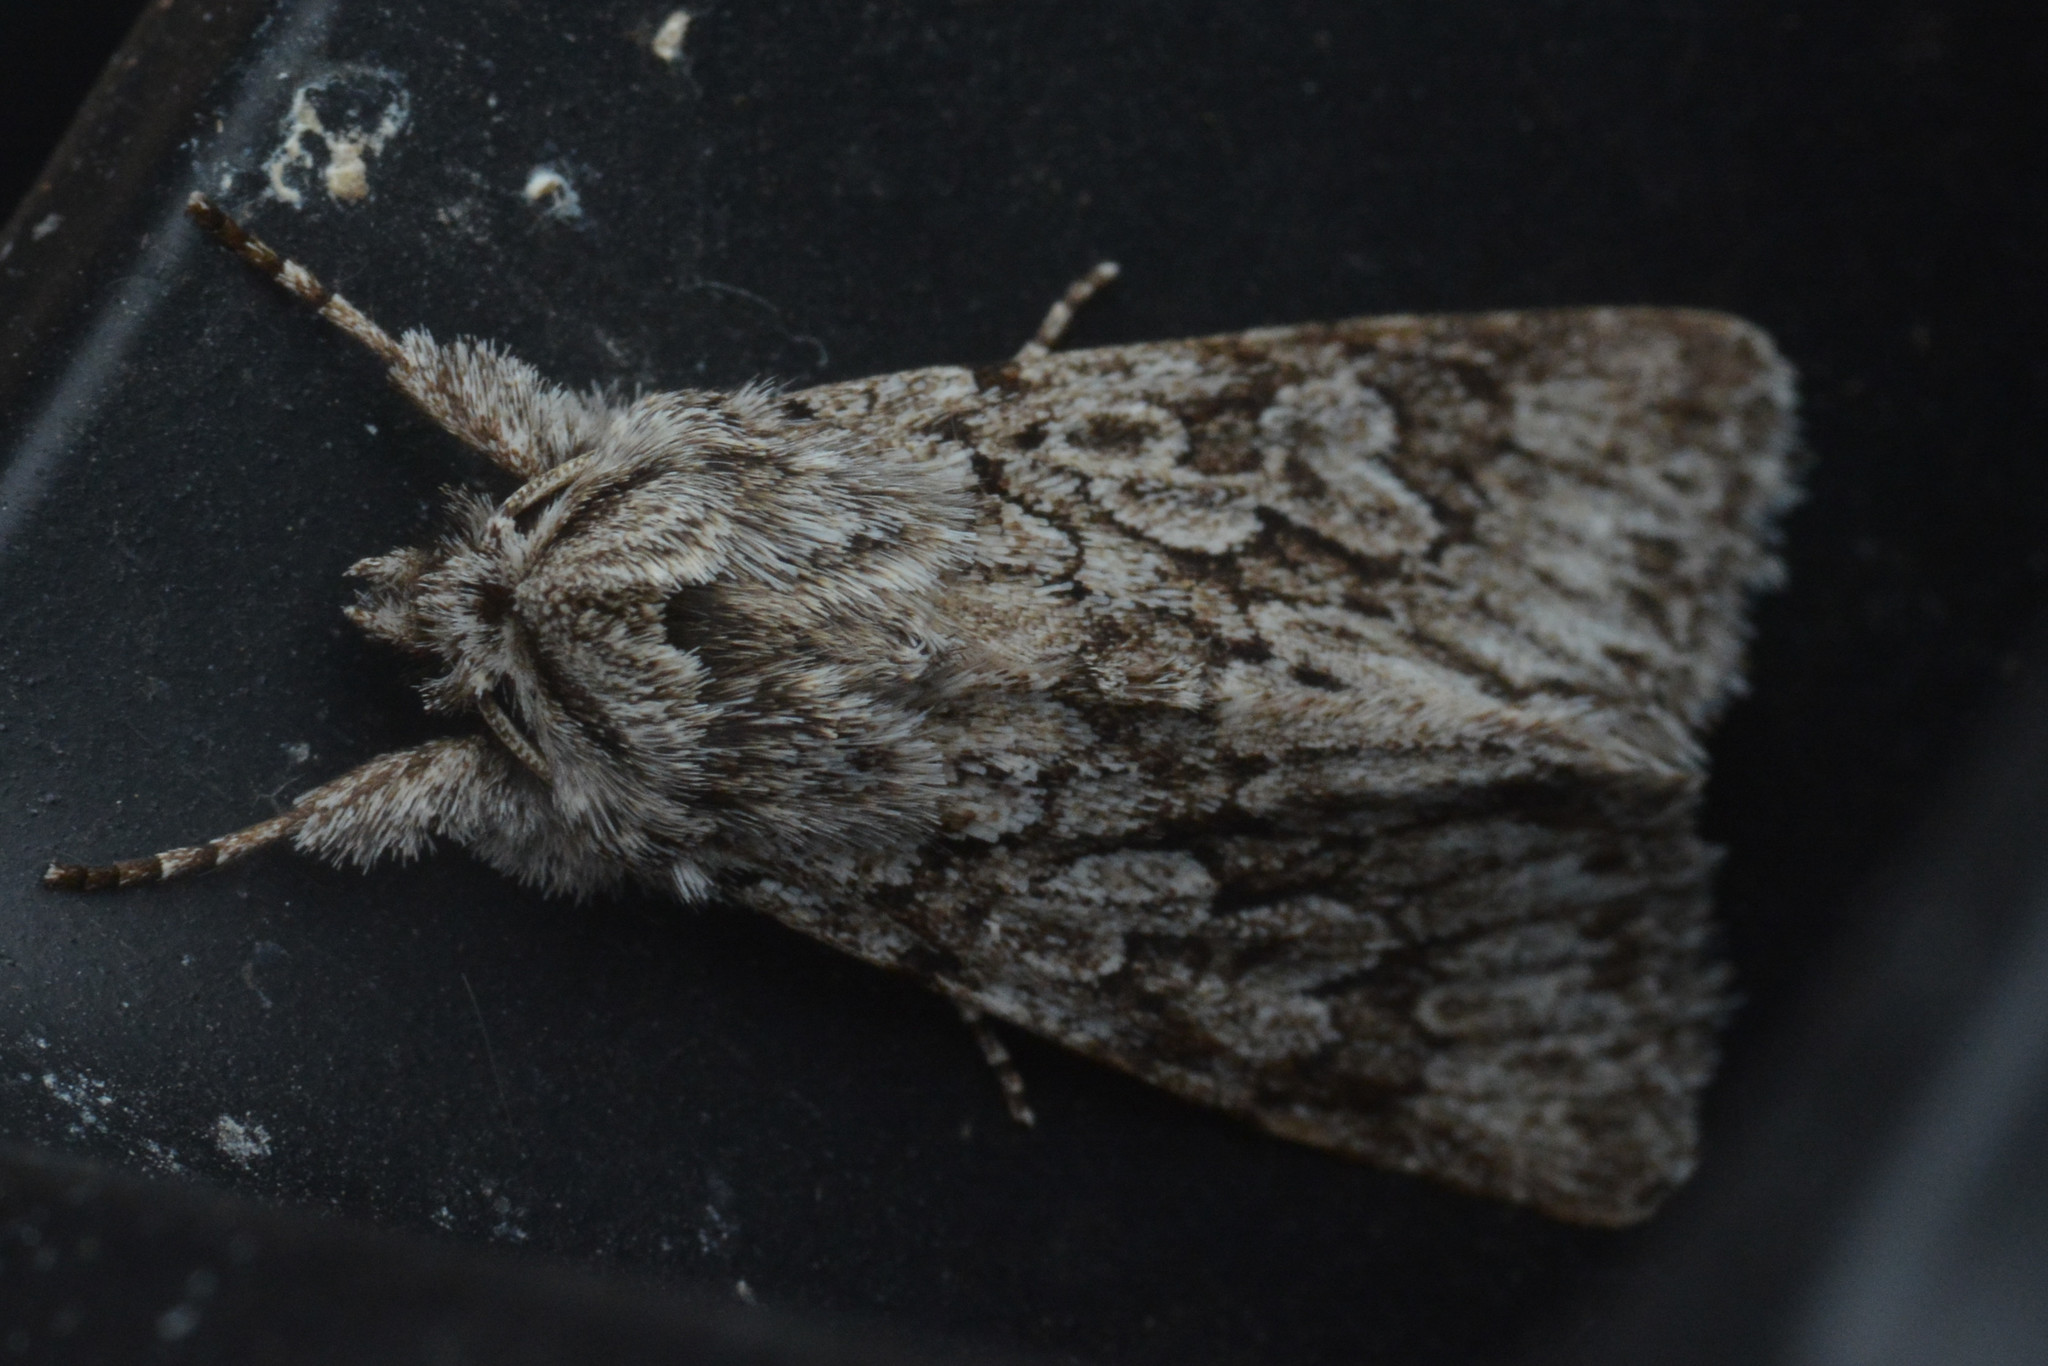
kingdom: Animalia
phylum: Arthropoda
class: Insecta
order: Lepidoptera
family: Noctuidae
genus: Xylocampa
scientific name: Xylocampa areola
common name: Early grey
